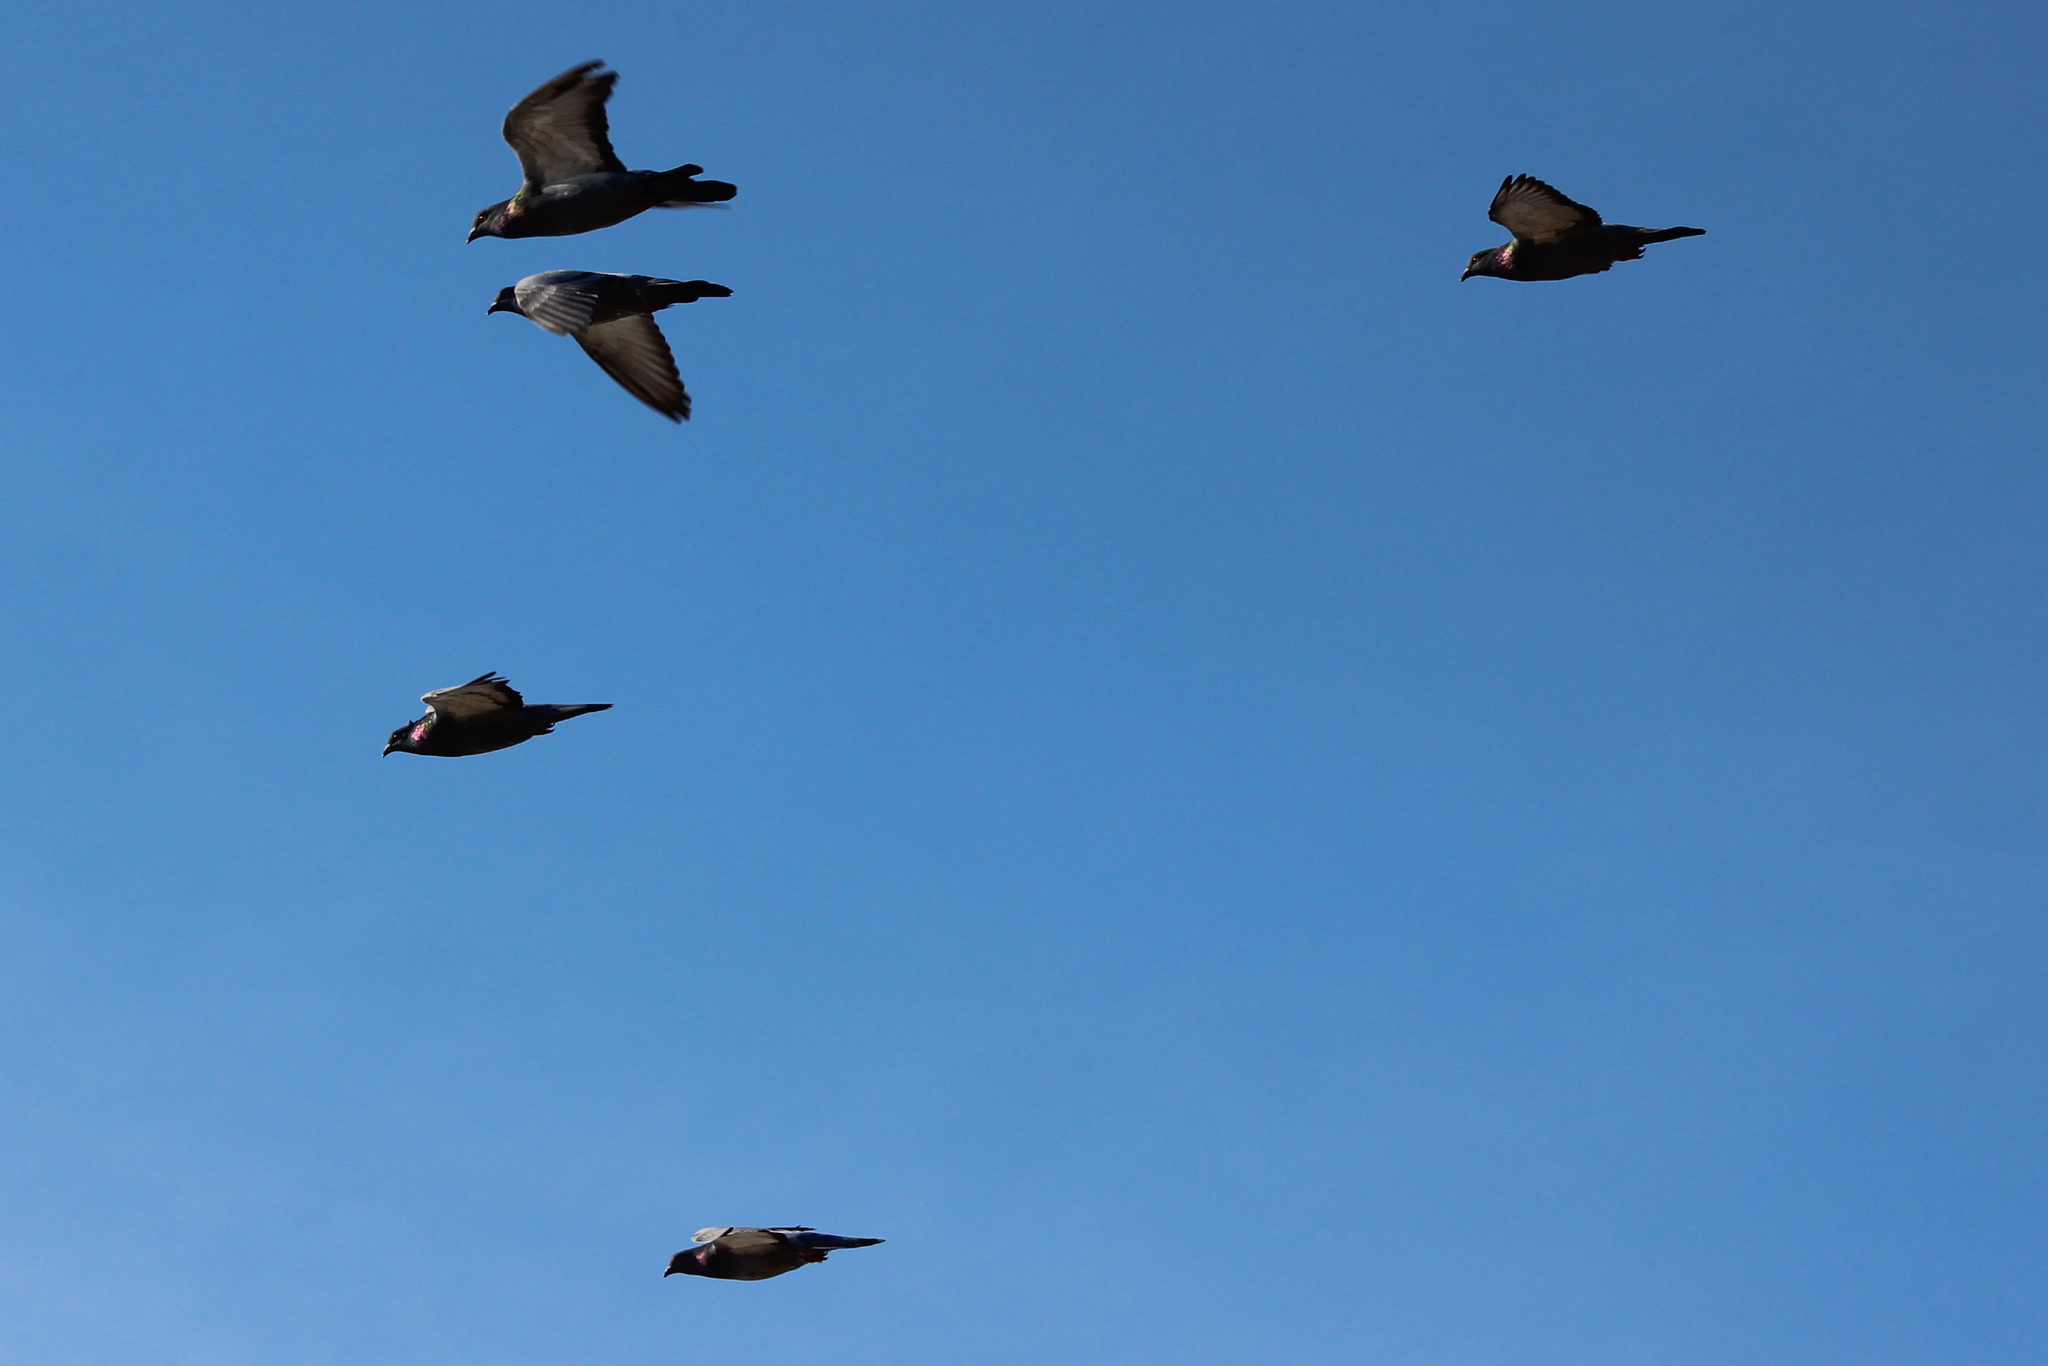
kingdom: Animalia
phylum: Chordata
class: Aves
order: Columbiformes
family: Columbidae
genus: Columba
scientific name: Columba livia
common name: Rock pigeon
